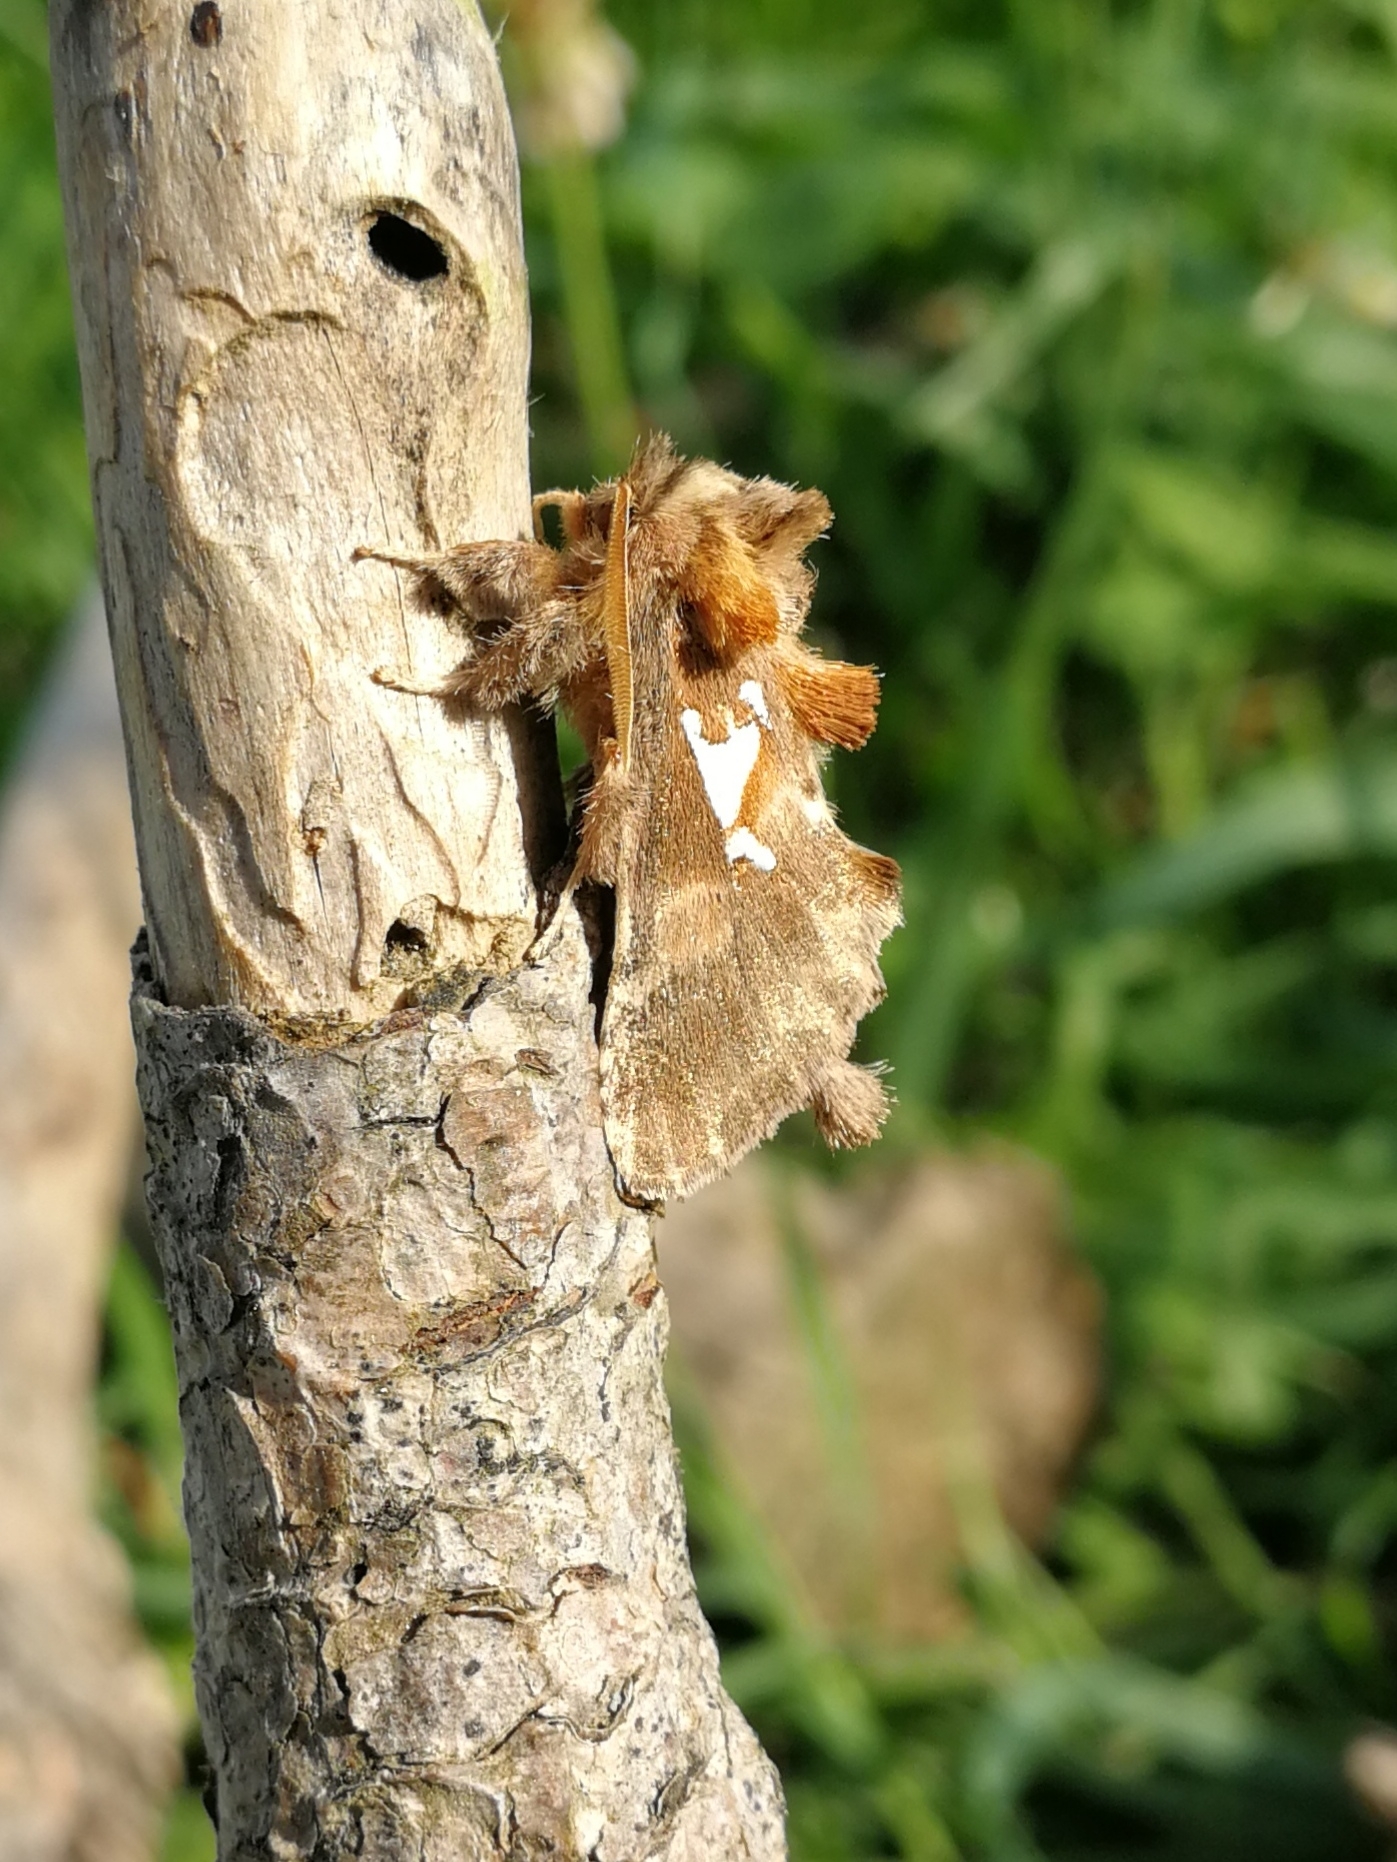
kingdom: Animalia
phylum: Arthropoda
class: Insecta
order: Lepidoptera
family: Notodontidae
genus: Spatalia
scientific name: Spatalia argentina
